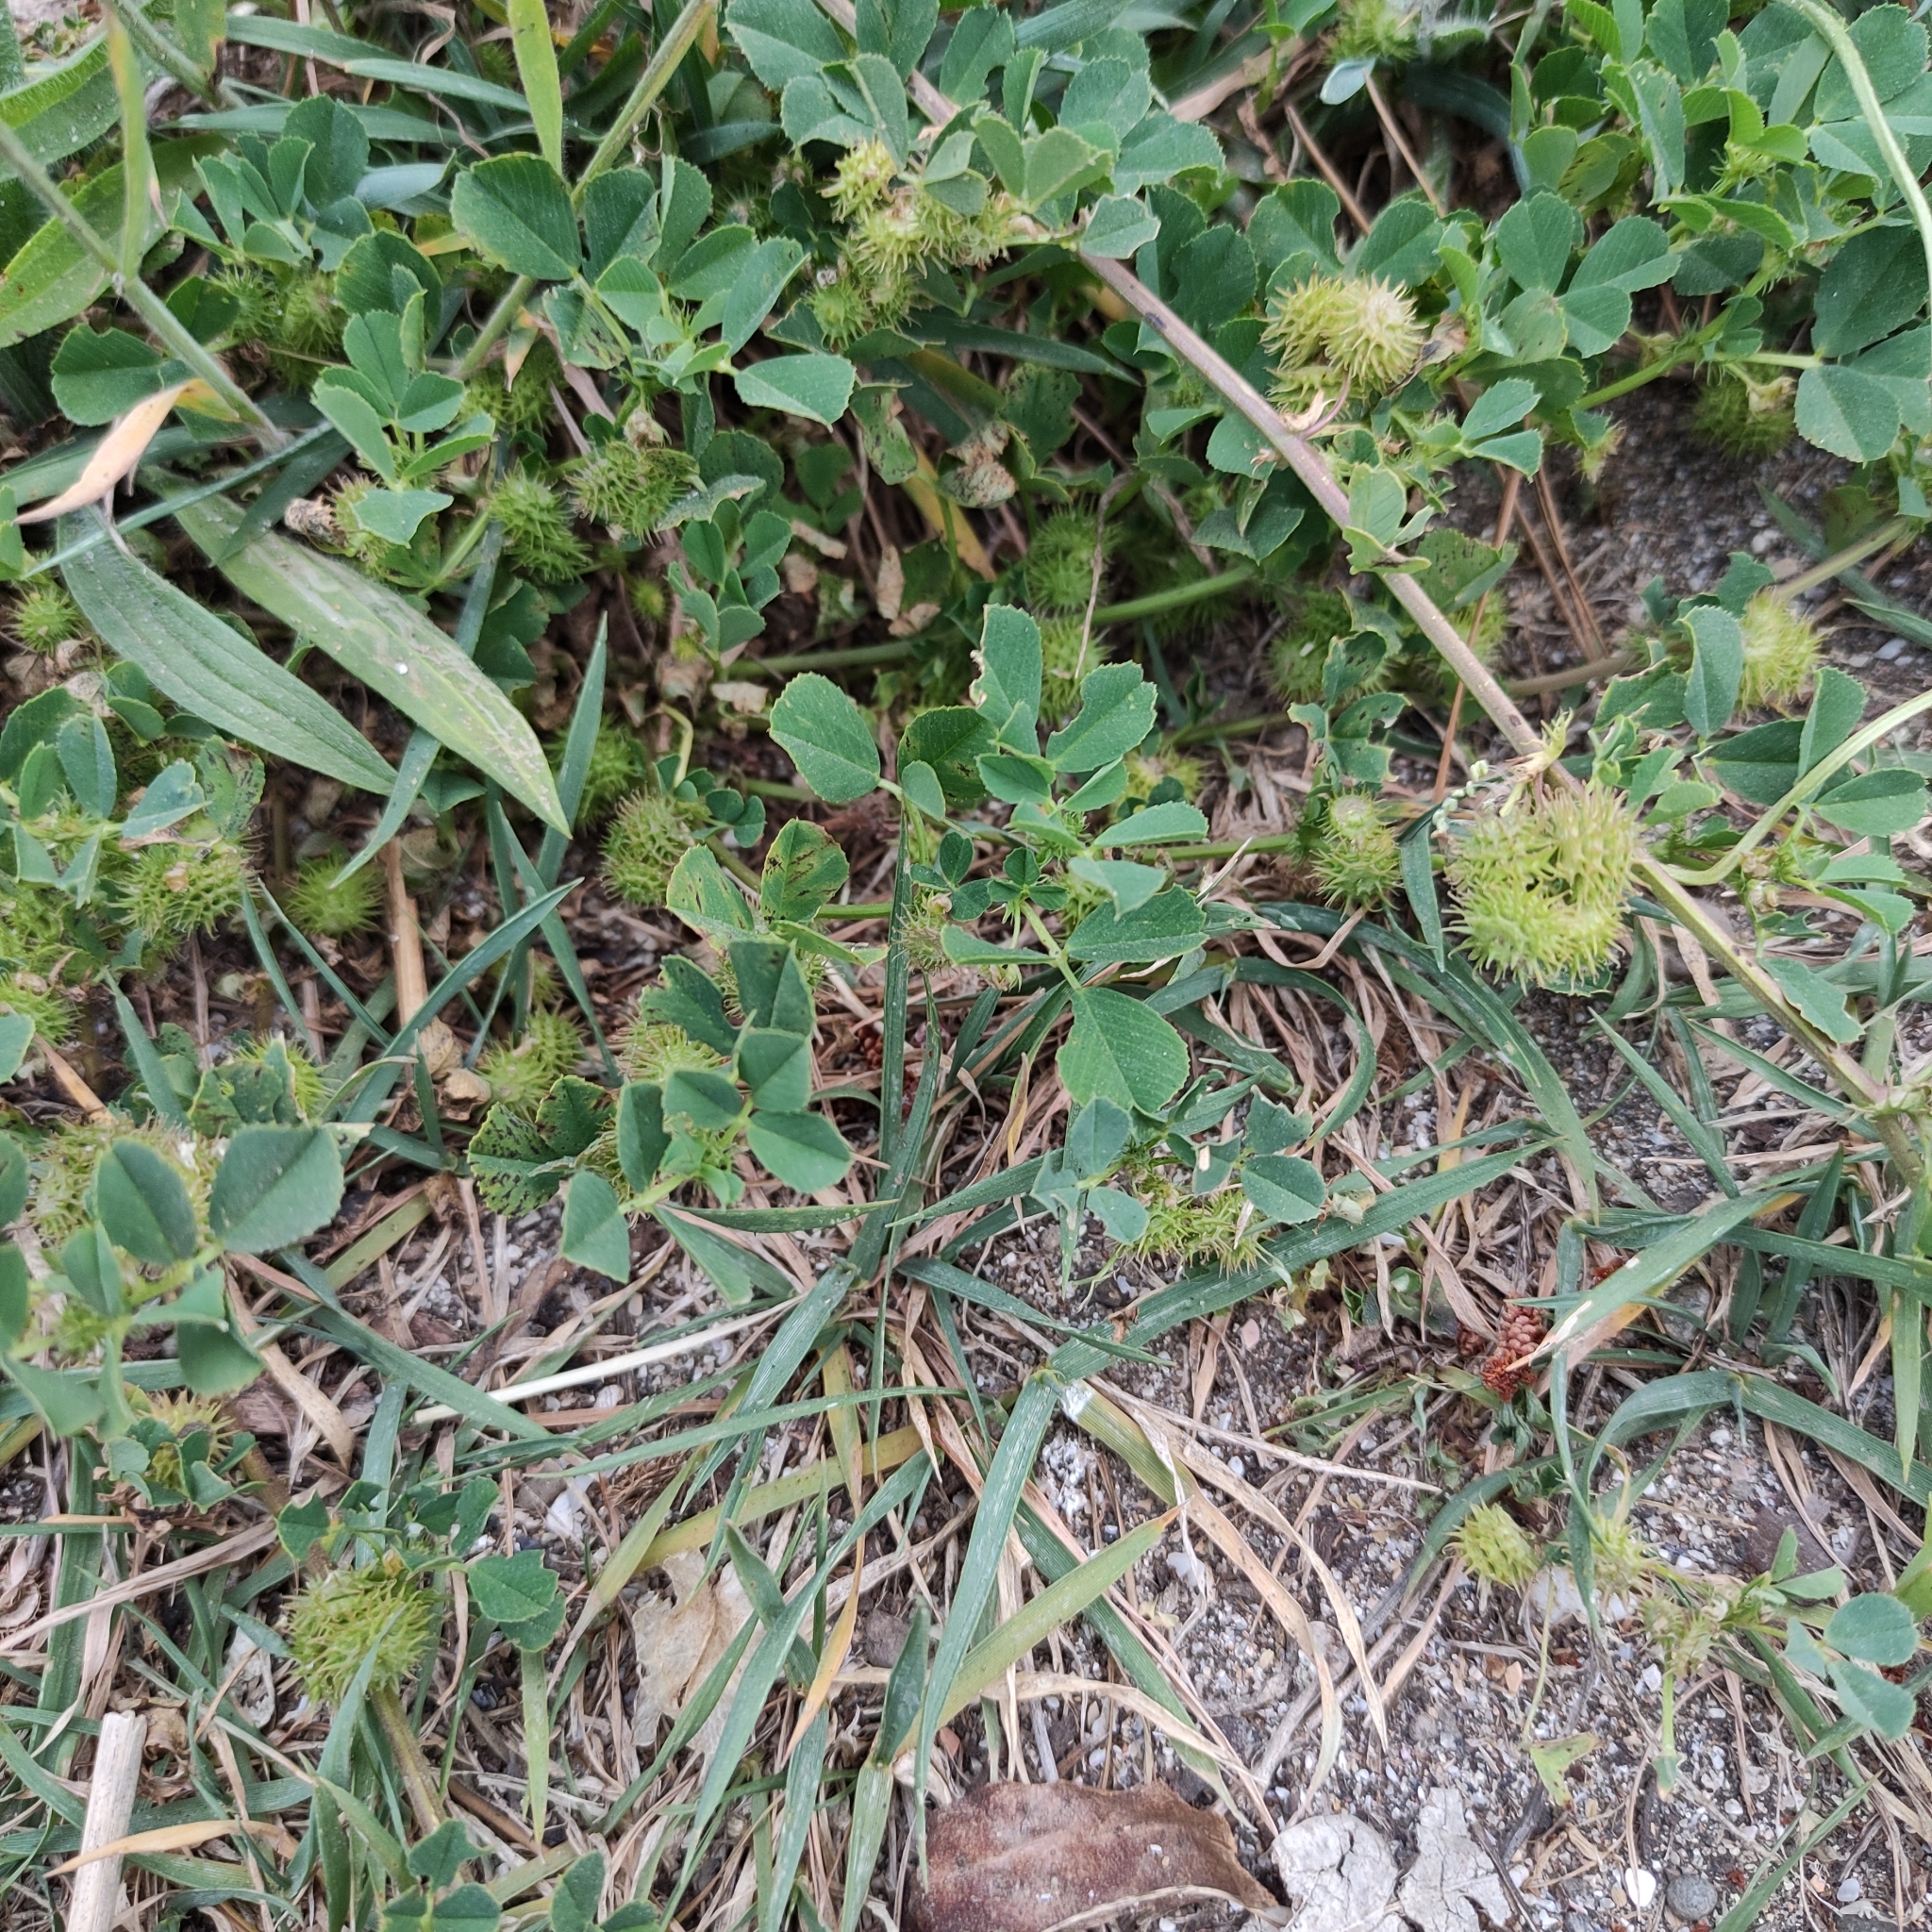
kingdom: Plantae
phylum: Tracheophyta
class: Magnoliopsida
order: Fabales
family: Fabaceae
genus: Medicago
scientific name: Medicago polymorpha
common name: Burclover
